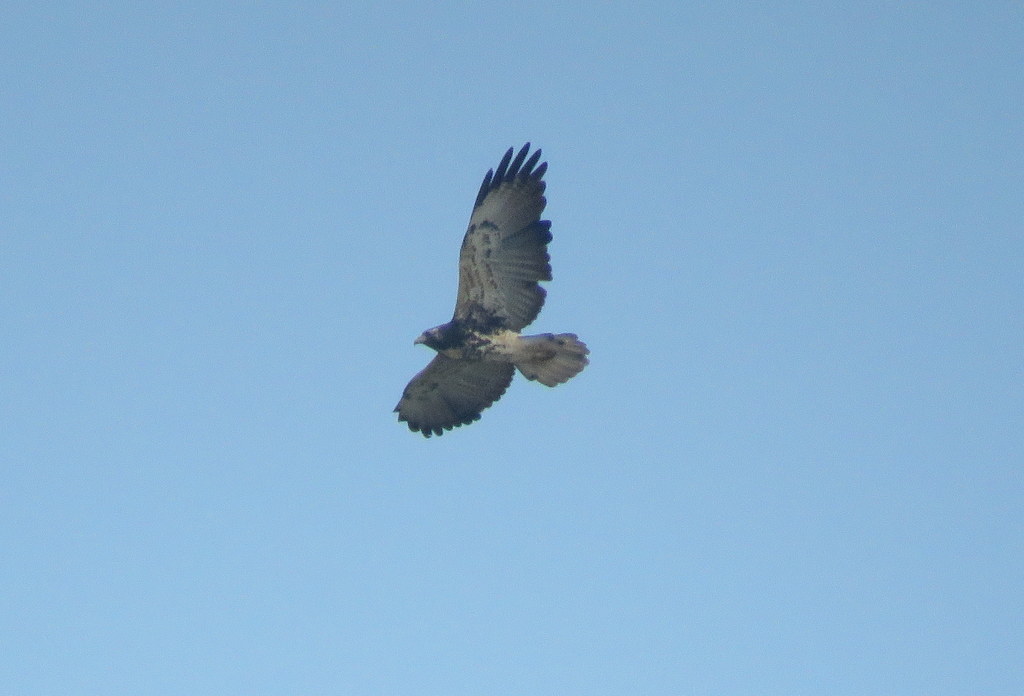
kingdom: Animalia
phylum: Chordata
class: Aves
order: Accipitriformes
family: Accipitridae
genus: Buteo
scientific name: Buteo albicaudatus
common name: White-tailed hawk
